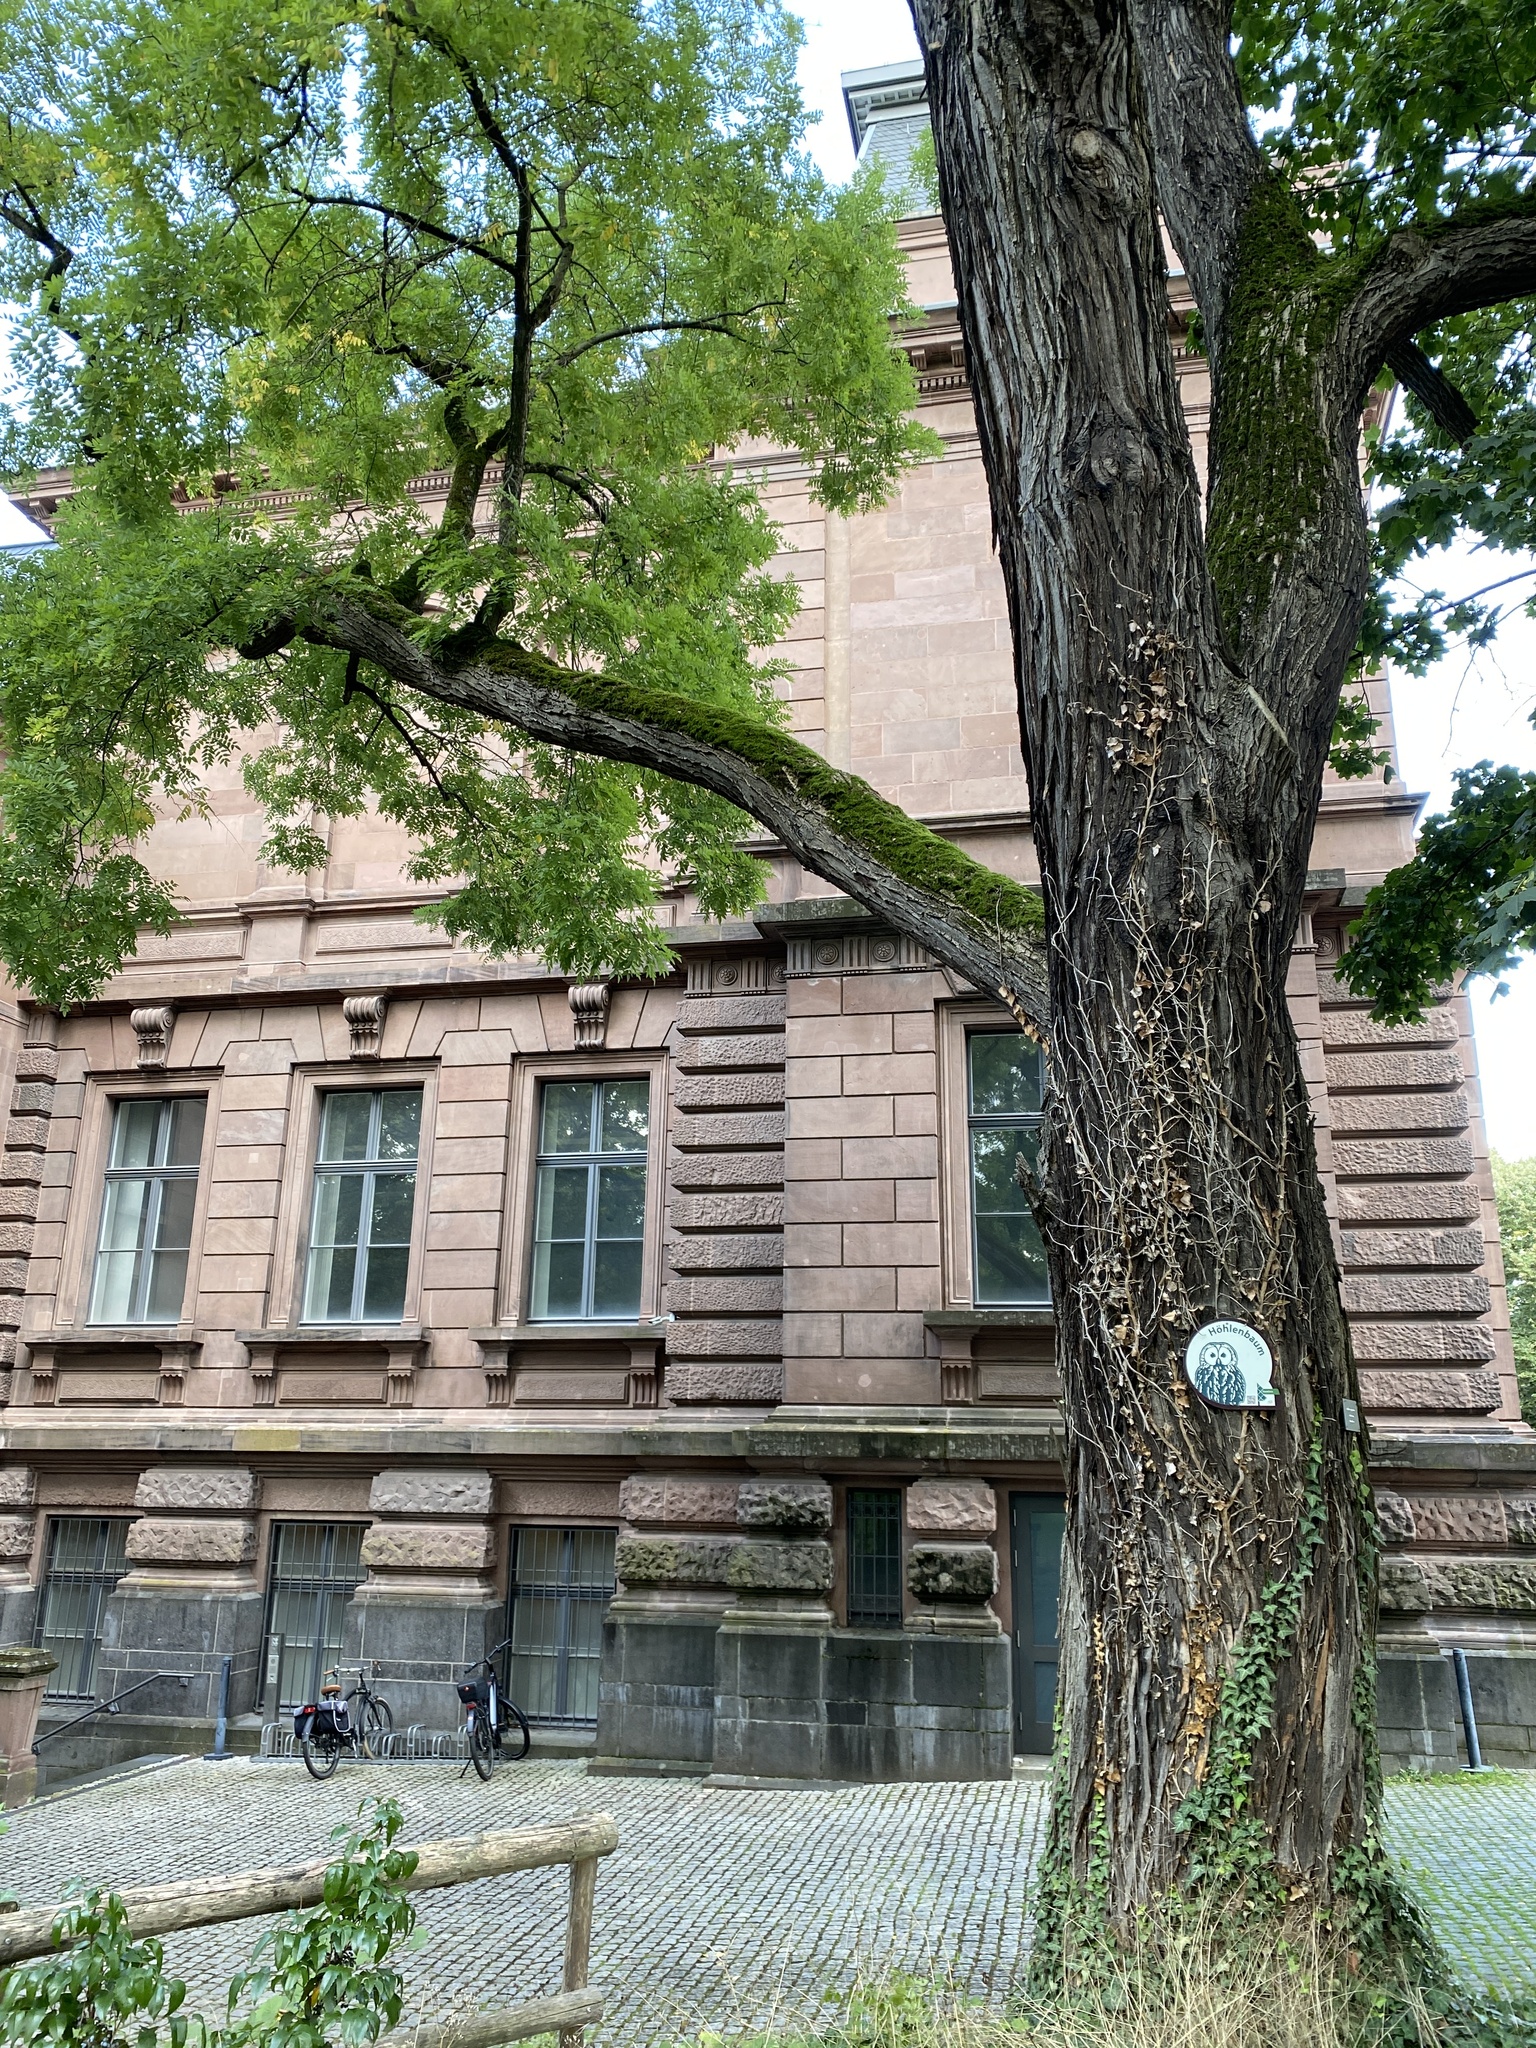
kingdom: Plantae
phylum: Tracheophyta
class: Magnoliopsida
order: Fabales
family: Fabaceae
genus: Styphnolobium
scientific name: Styphnolobium japonicum
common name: Chinese scholartree
